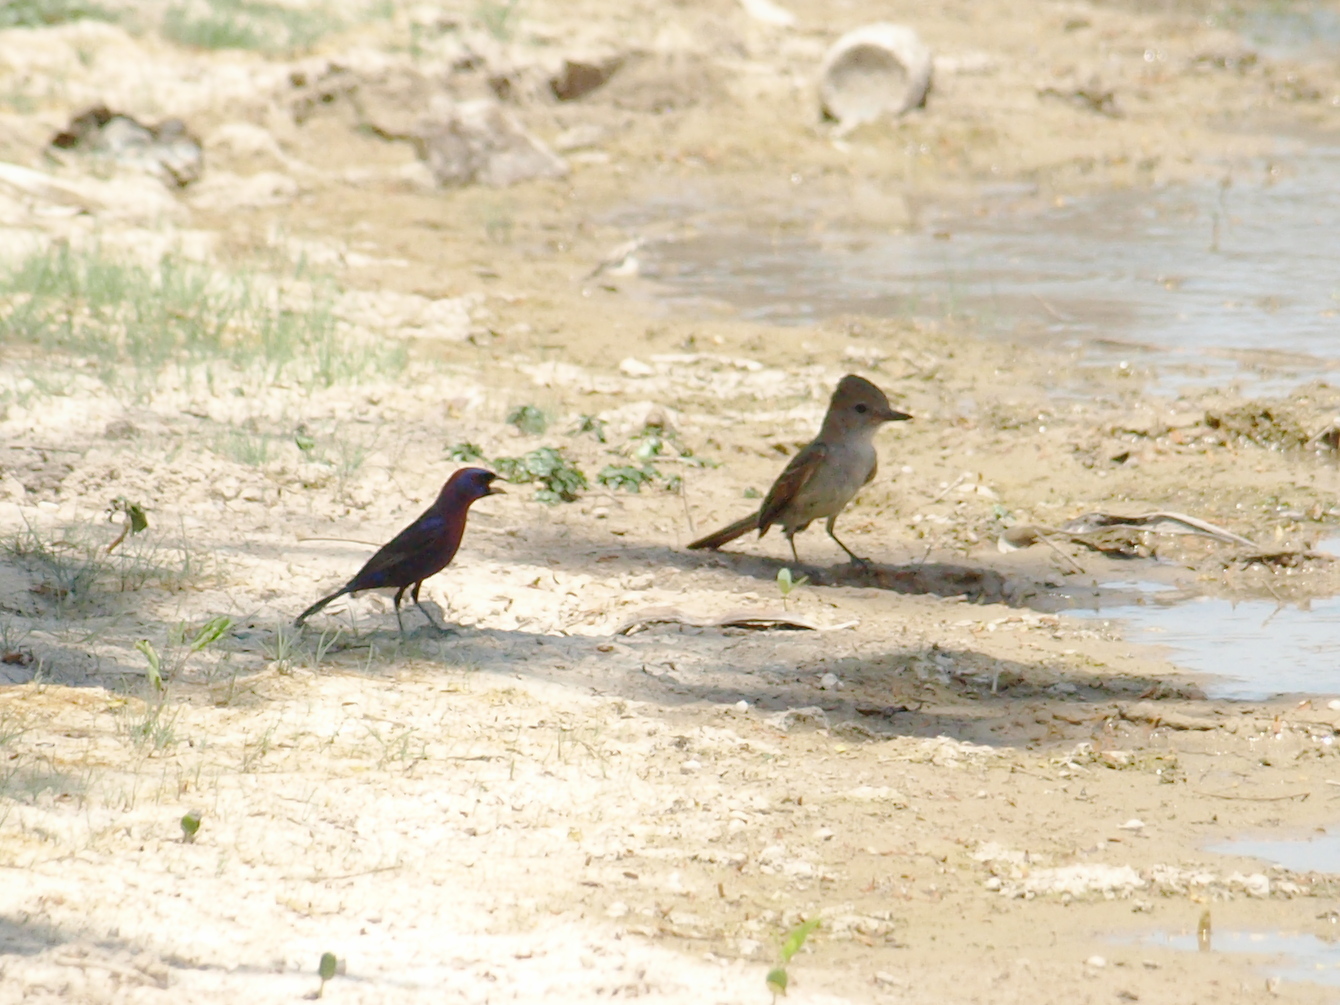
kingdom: Animalia
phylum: Chordata
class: Aves
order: Passeriformes
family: Tyrannidae
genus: Myiarchus
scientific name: Myiarchus cinerascens
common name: Ash-throated flycatcher
